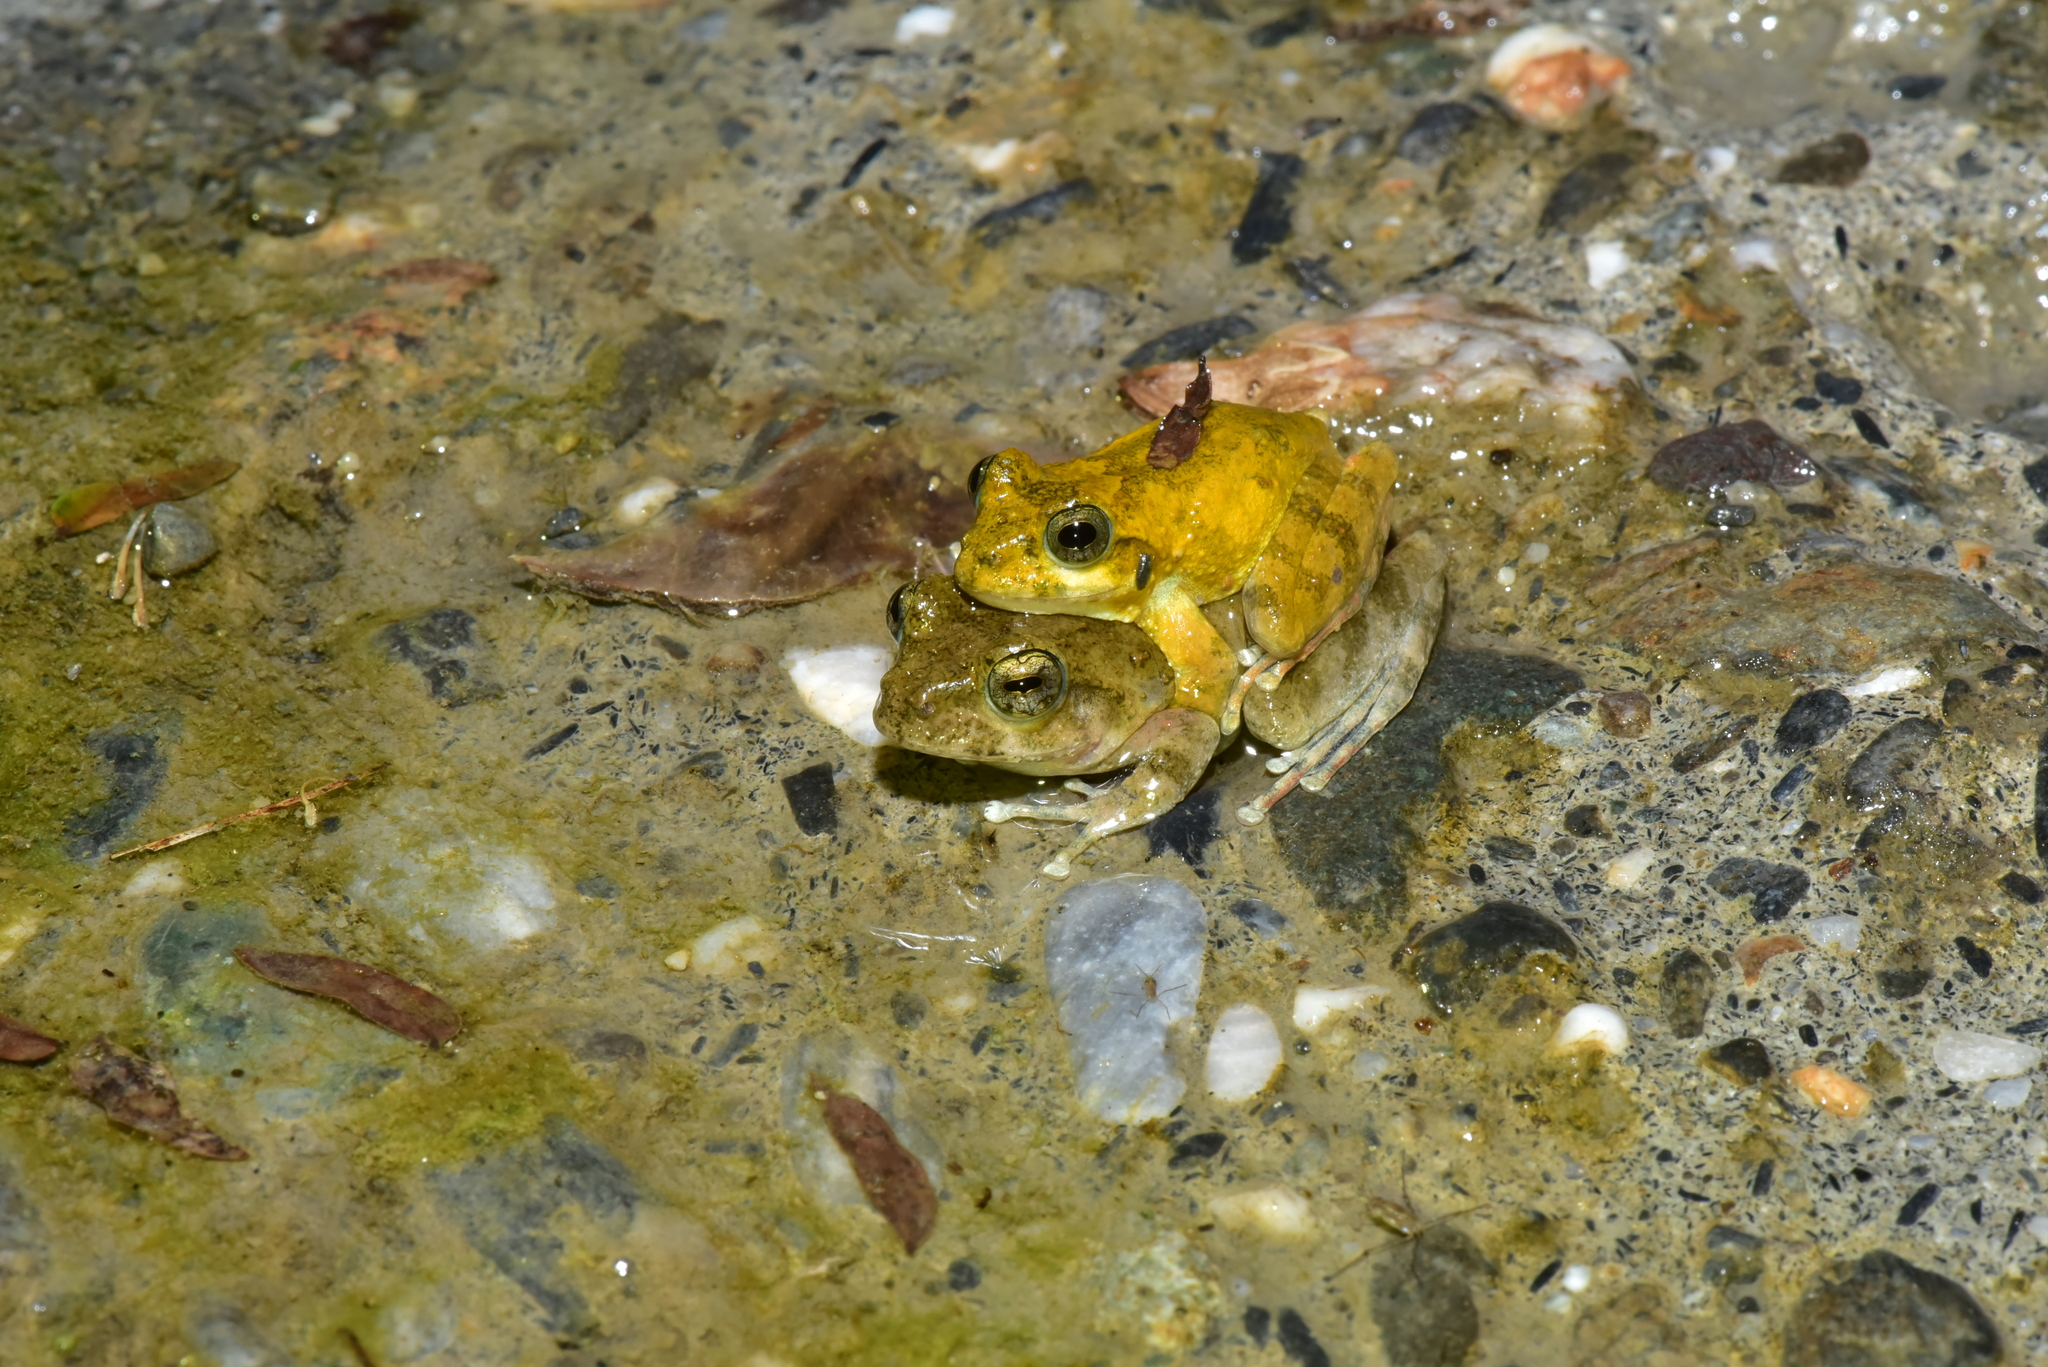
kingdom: Animalia
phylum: Chordata
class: Amphibia
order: Anura
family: Rhacophoridae
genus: Buergeria
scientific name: Buergeria otai
